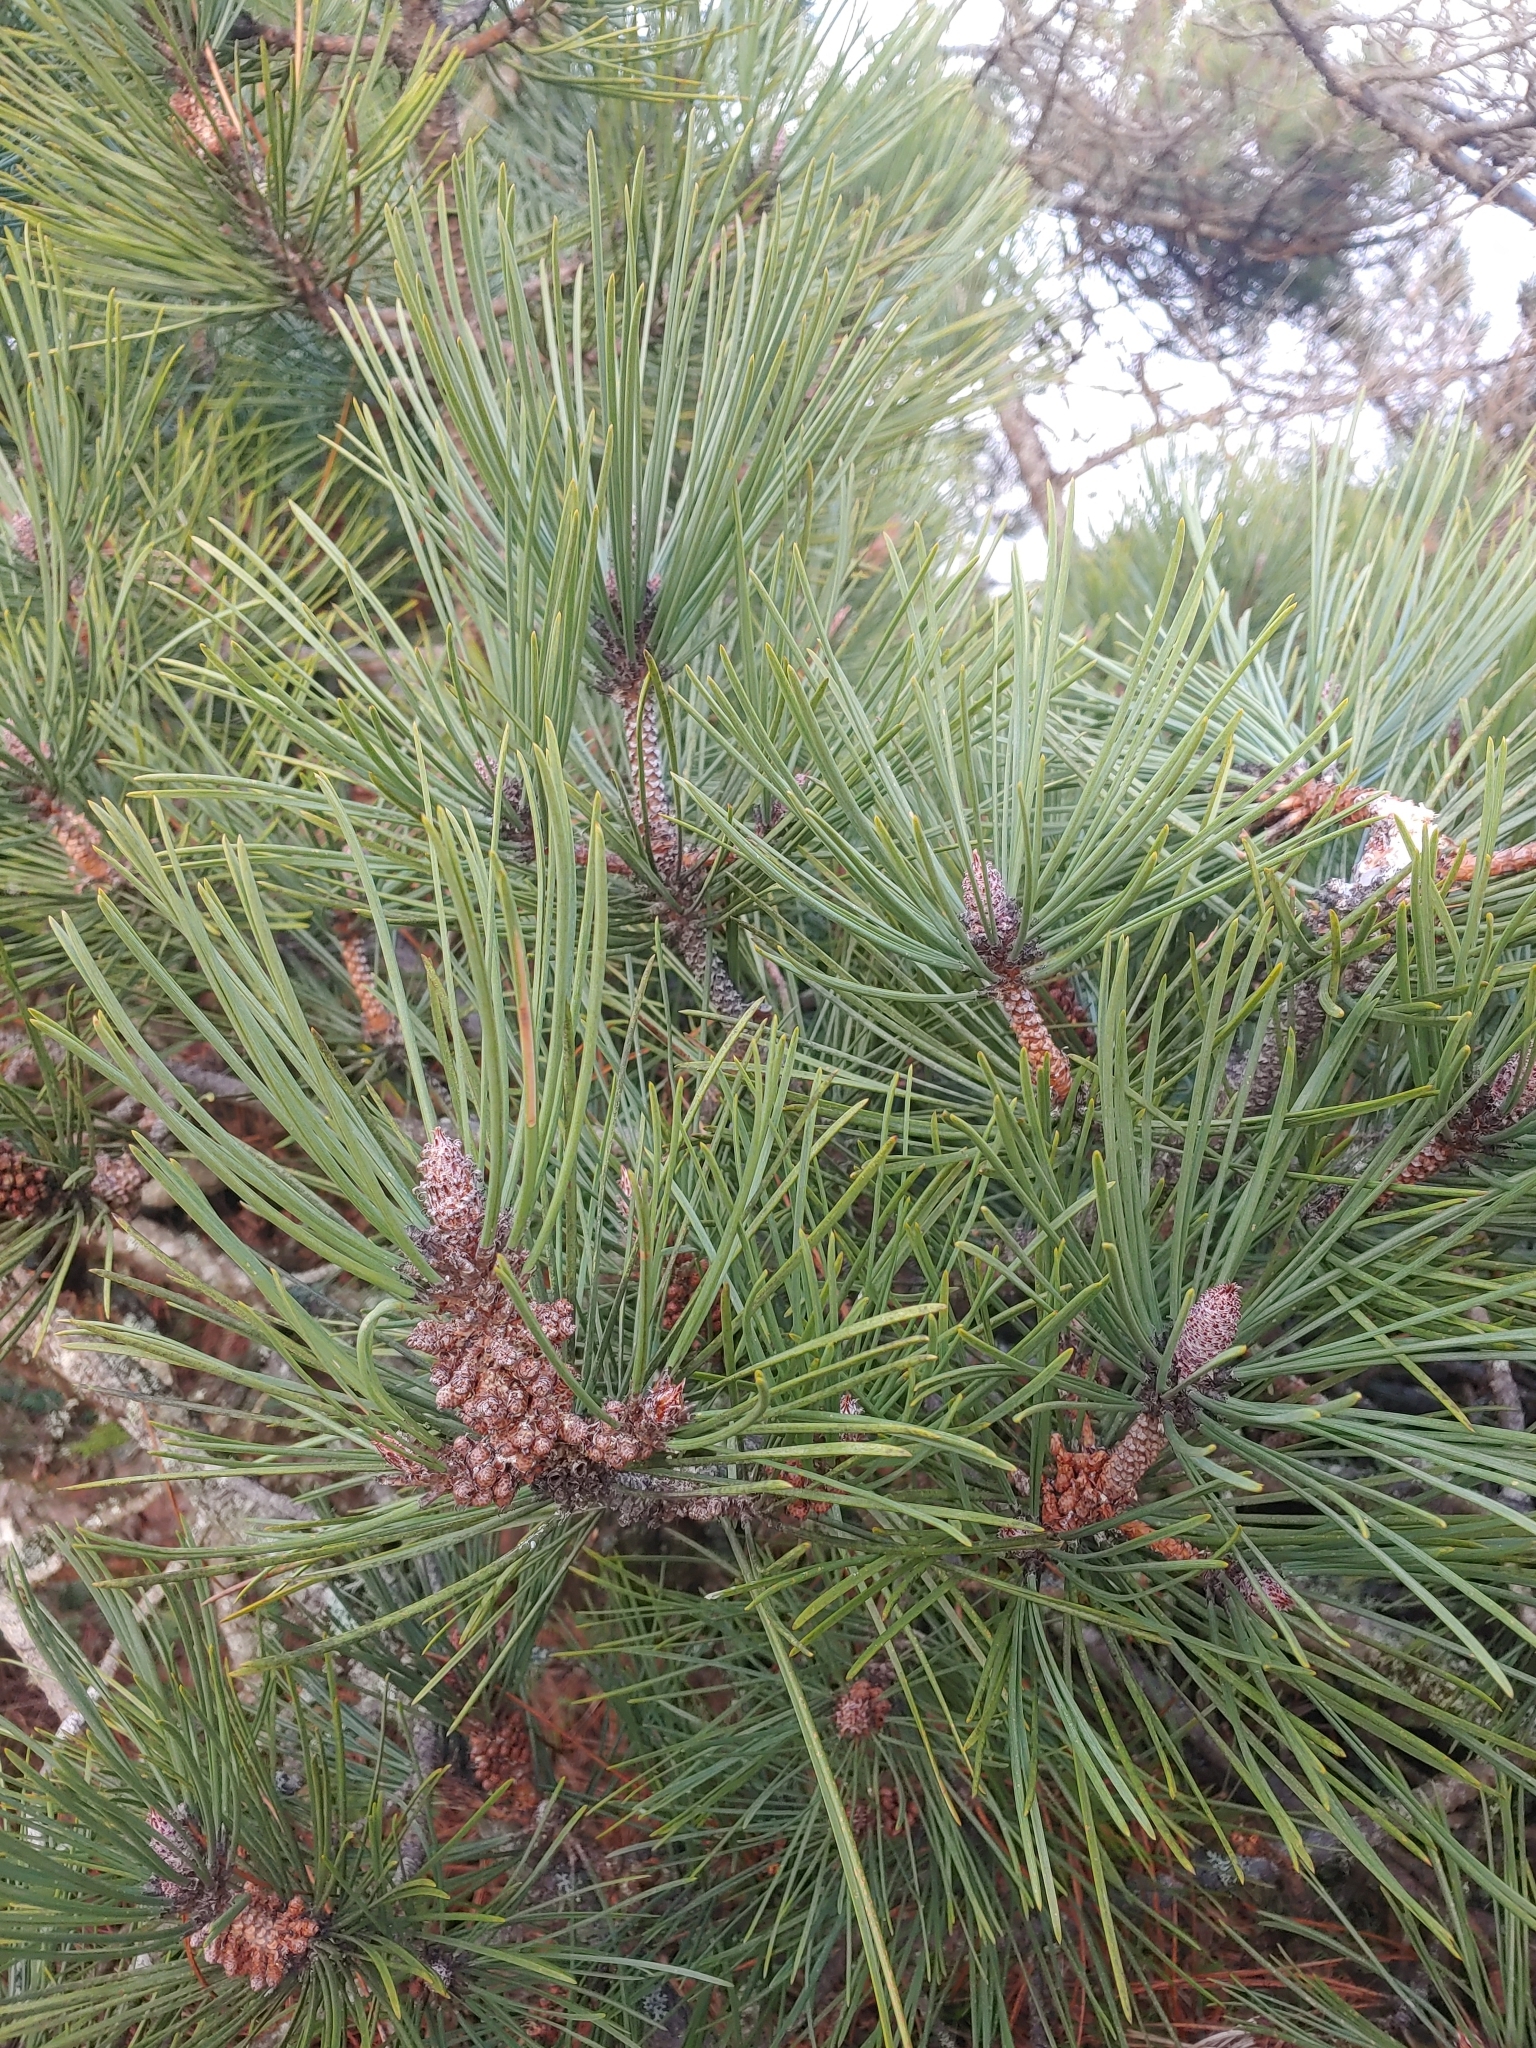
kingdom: Plantae
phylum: Tracheophyta
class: Pinopsida
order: Pinales
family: Pinaceae
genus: Pinus
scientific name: Pinus contorta
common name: Lodgepole pine
